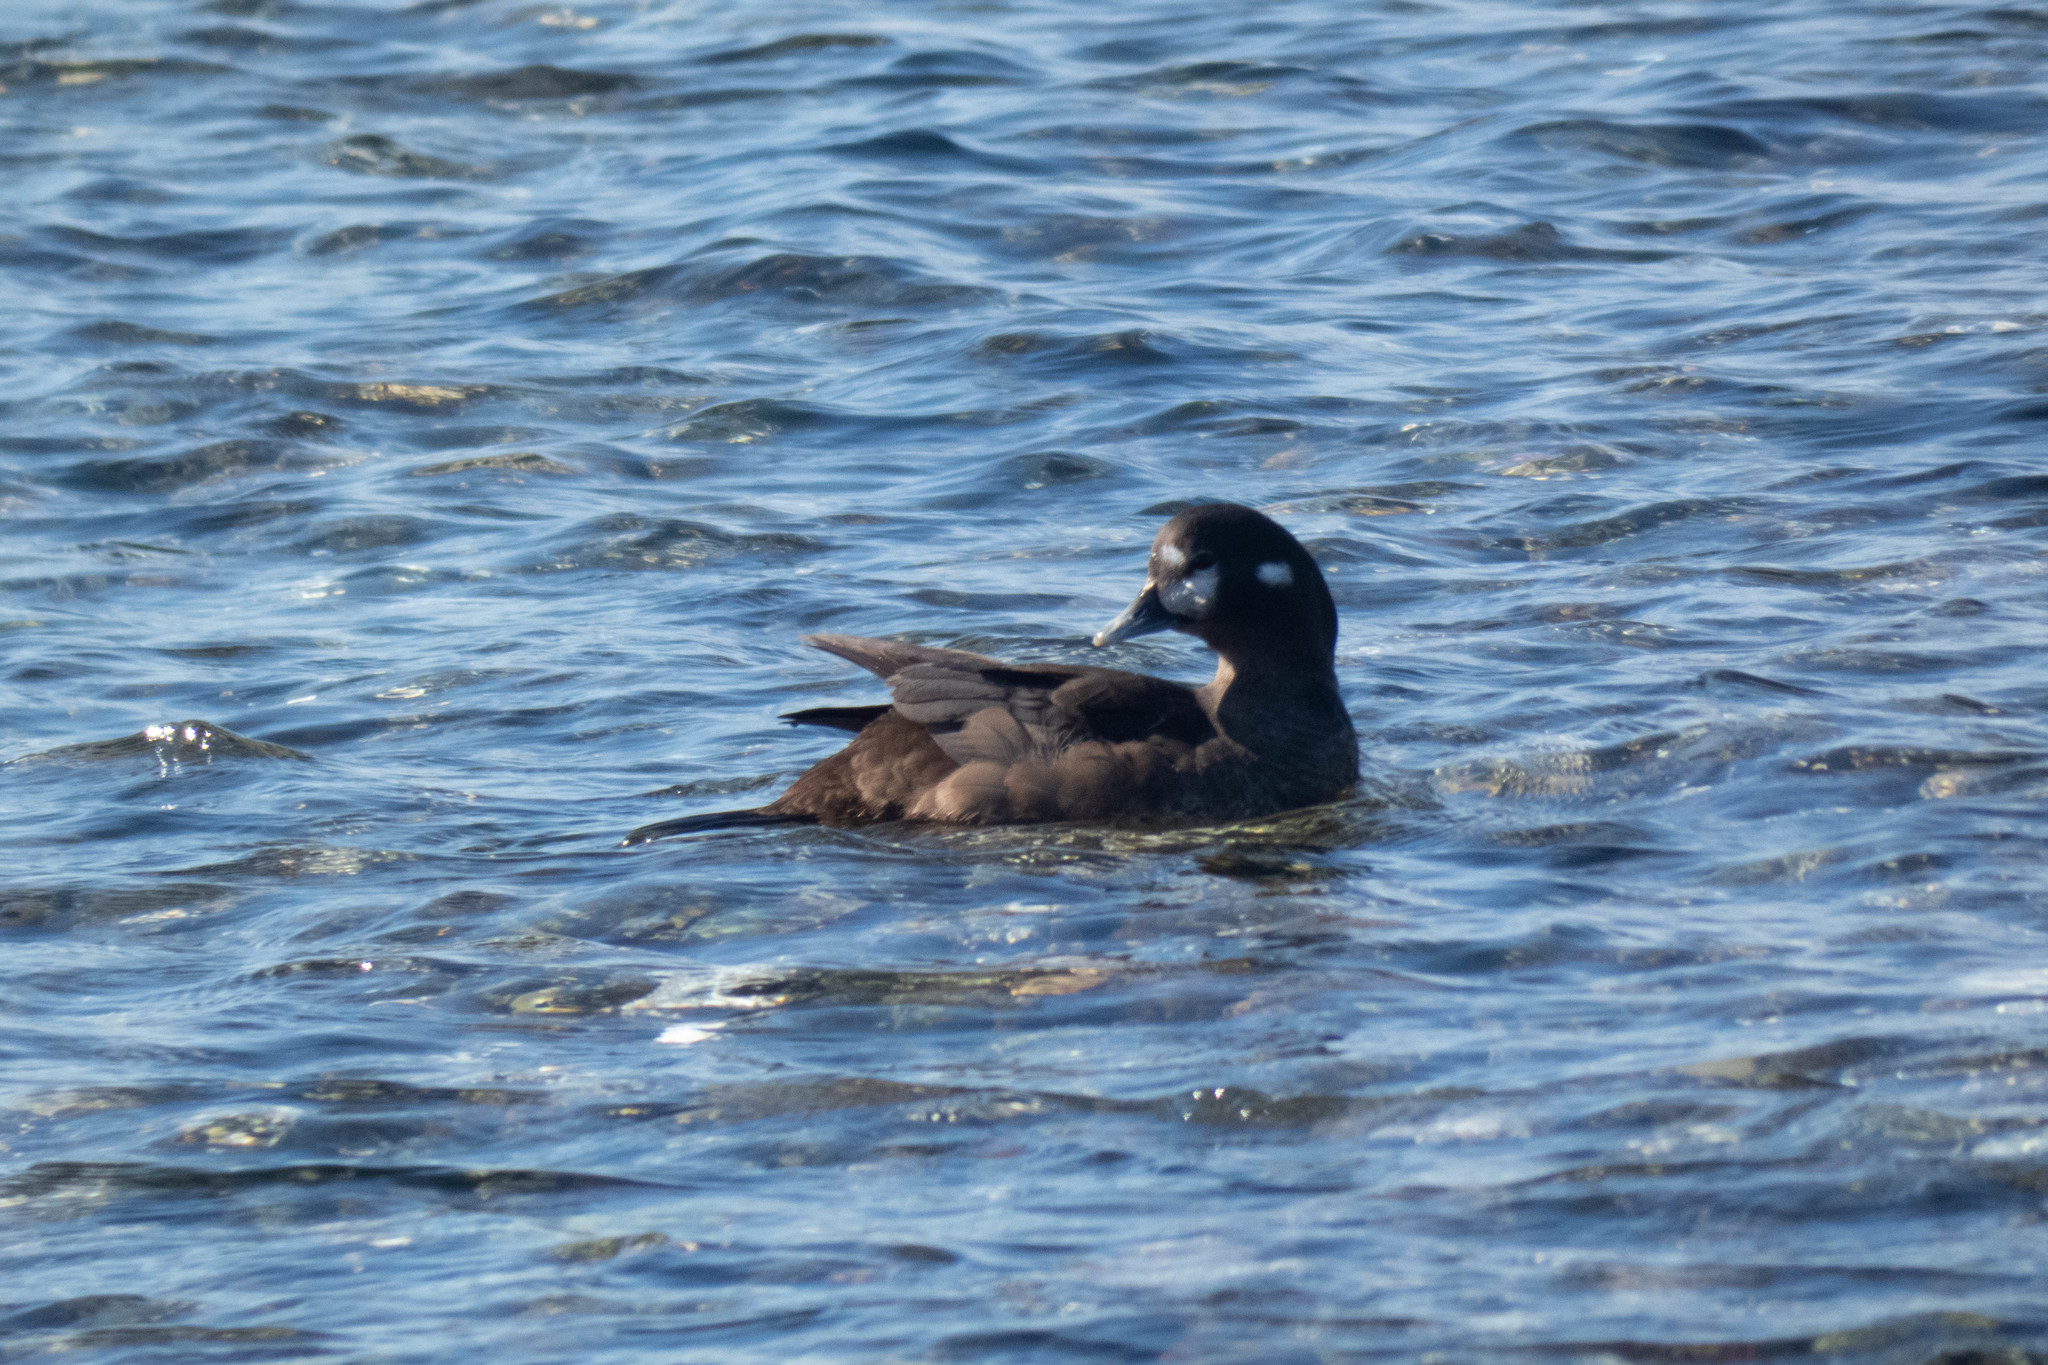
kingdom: Animalia
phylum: Chordata
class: Aves
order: Anseriformes
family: Anatidae
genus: Histrionicus
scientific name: Histrionicus histrionicus
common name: Harlequin duck
